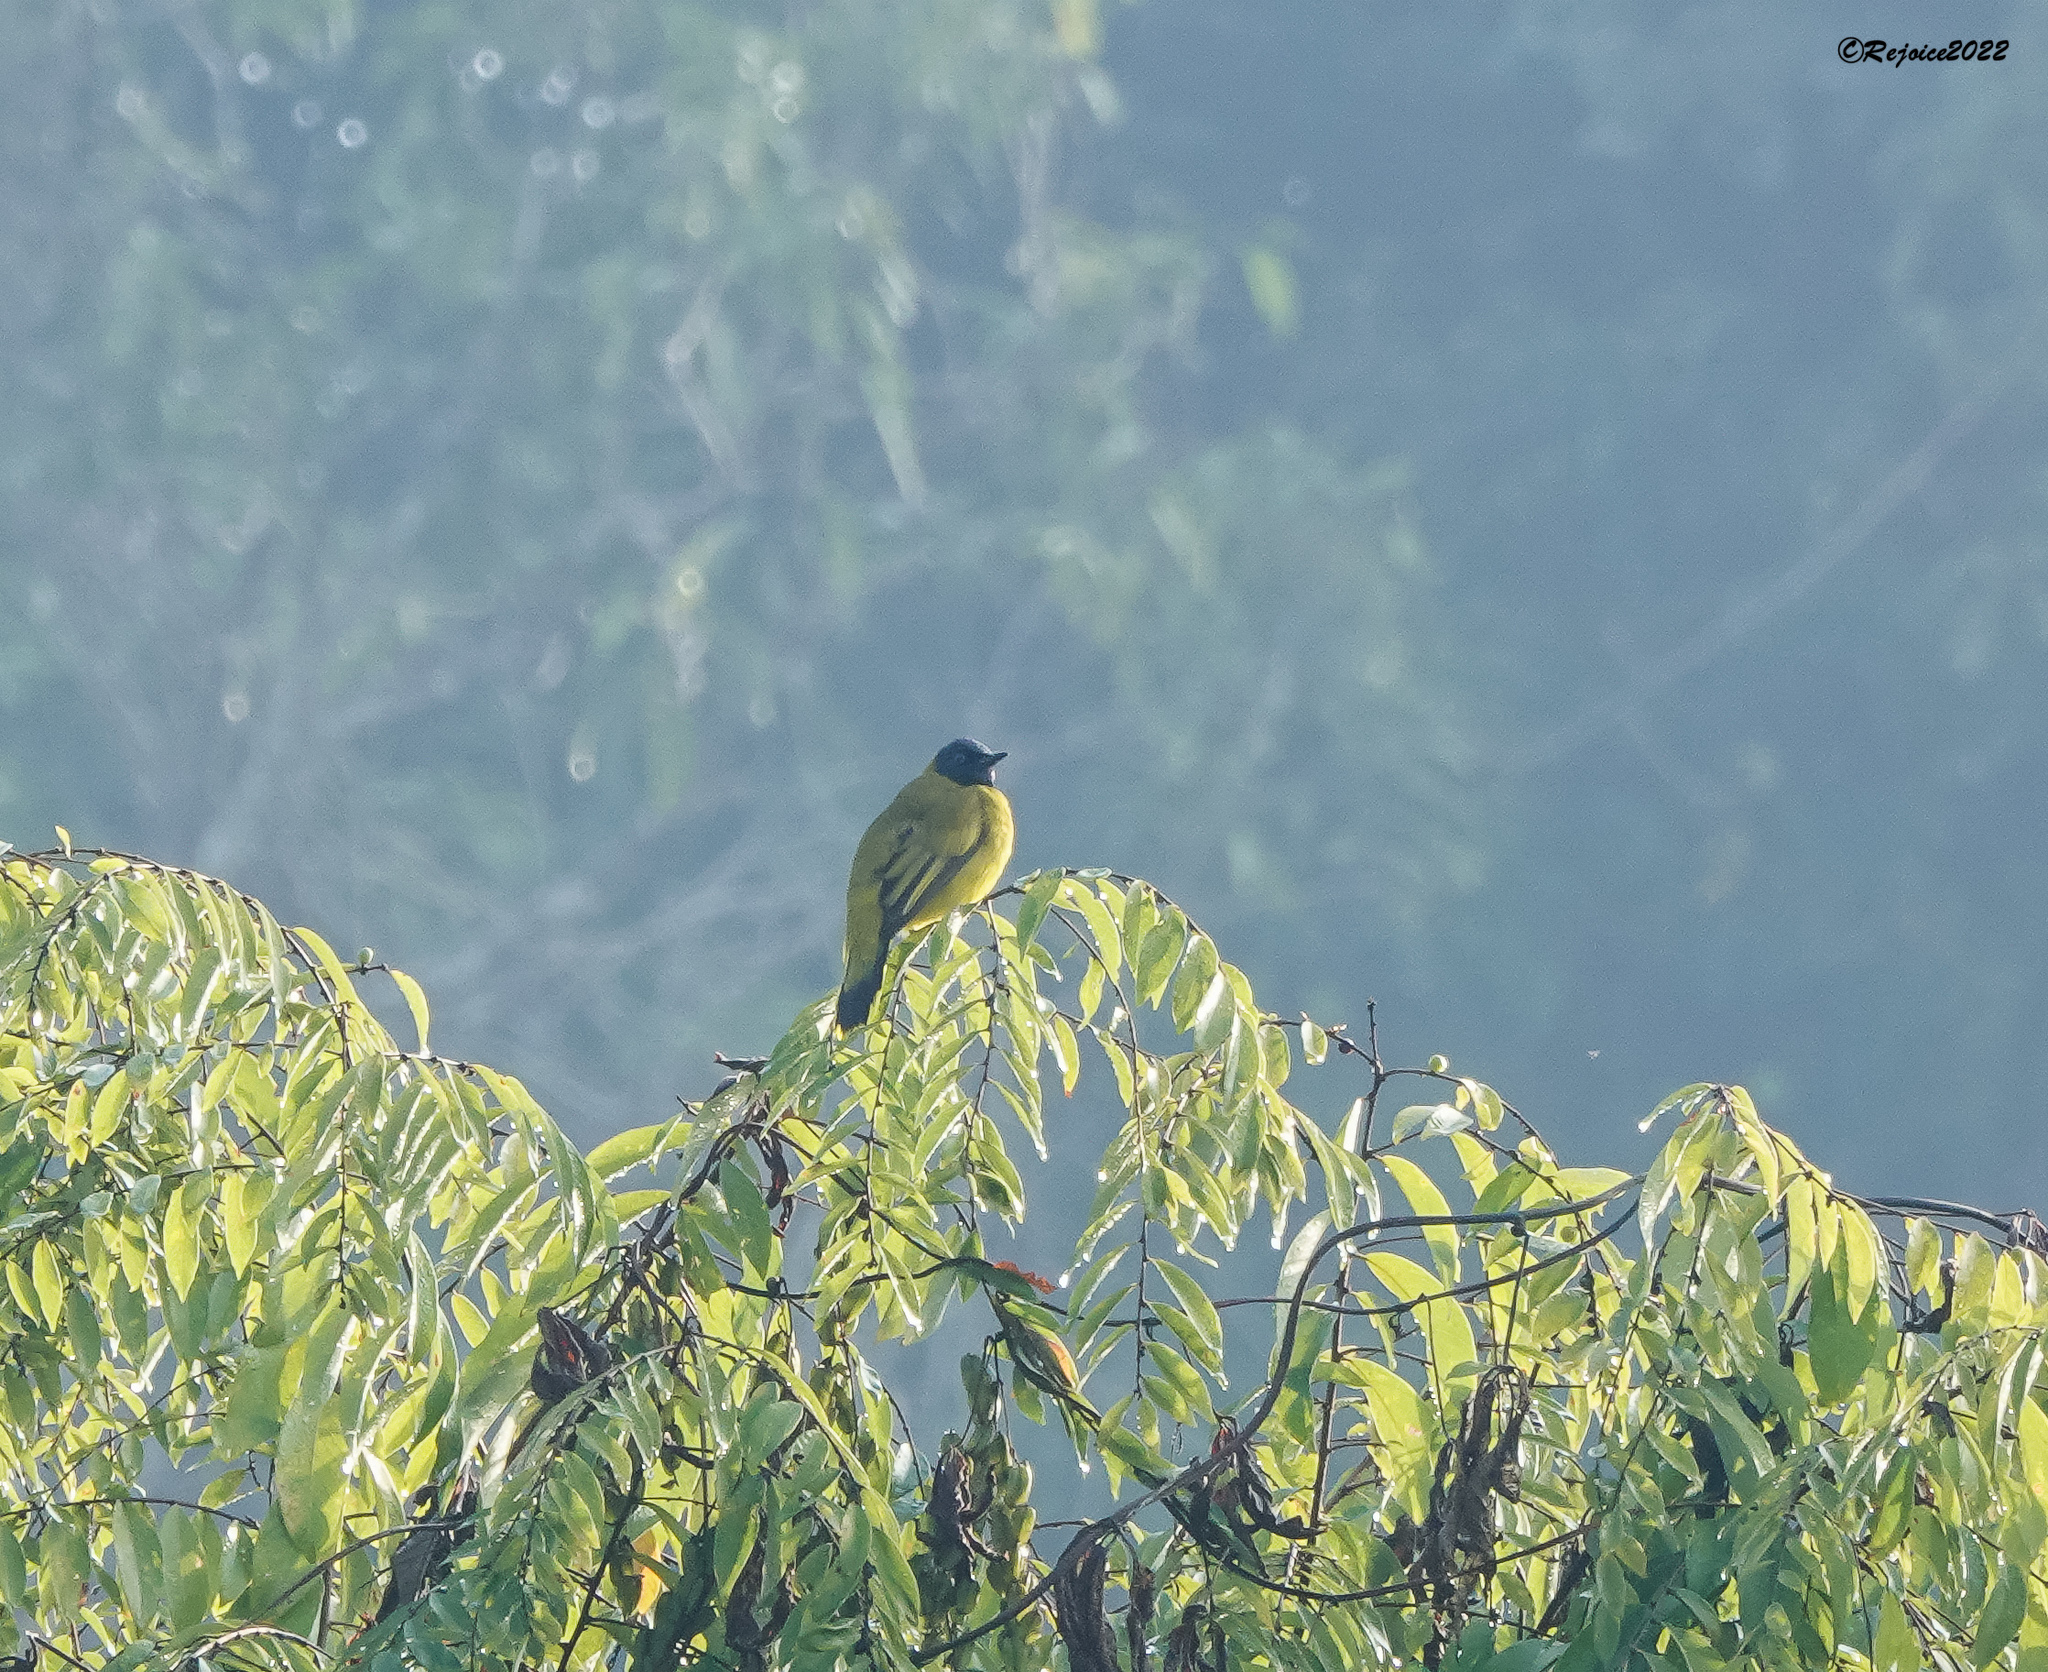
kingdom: Animalia
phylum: Chordata
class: Aves
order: Passeriformes
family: Pycnonotidae
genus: Microtarsus
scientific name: Microtarsus
